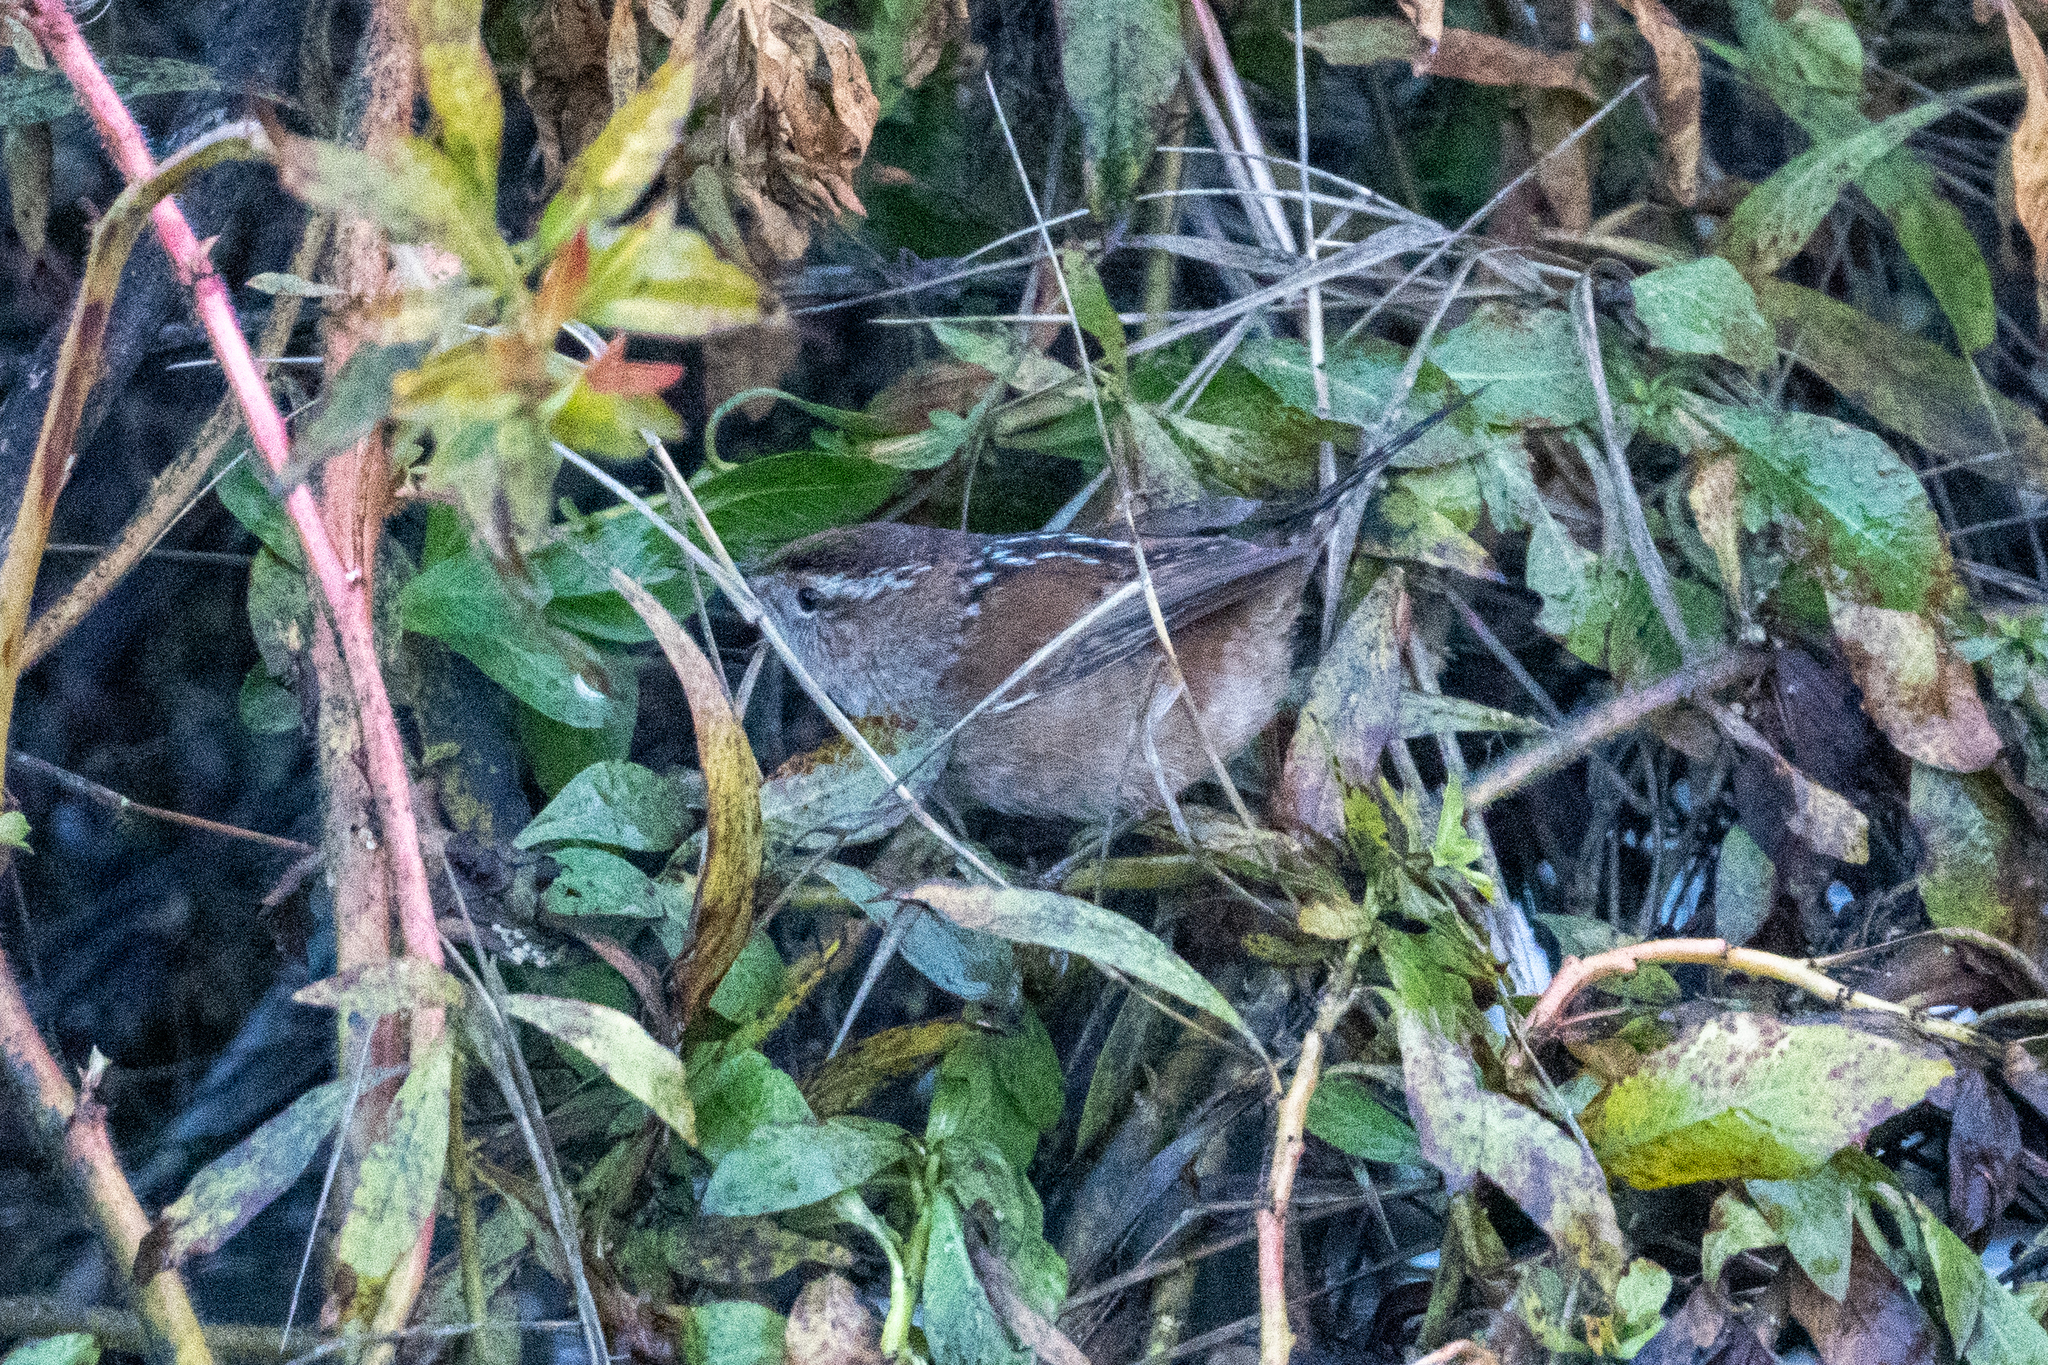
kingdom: Animalia
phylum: Chordata
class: Aves
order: Passeriformes
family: Troglodytidae
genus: Cistothorus
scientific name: Cistothorus palustris
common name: Marsh wren
